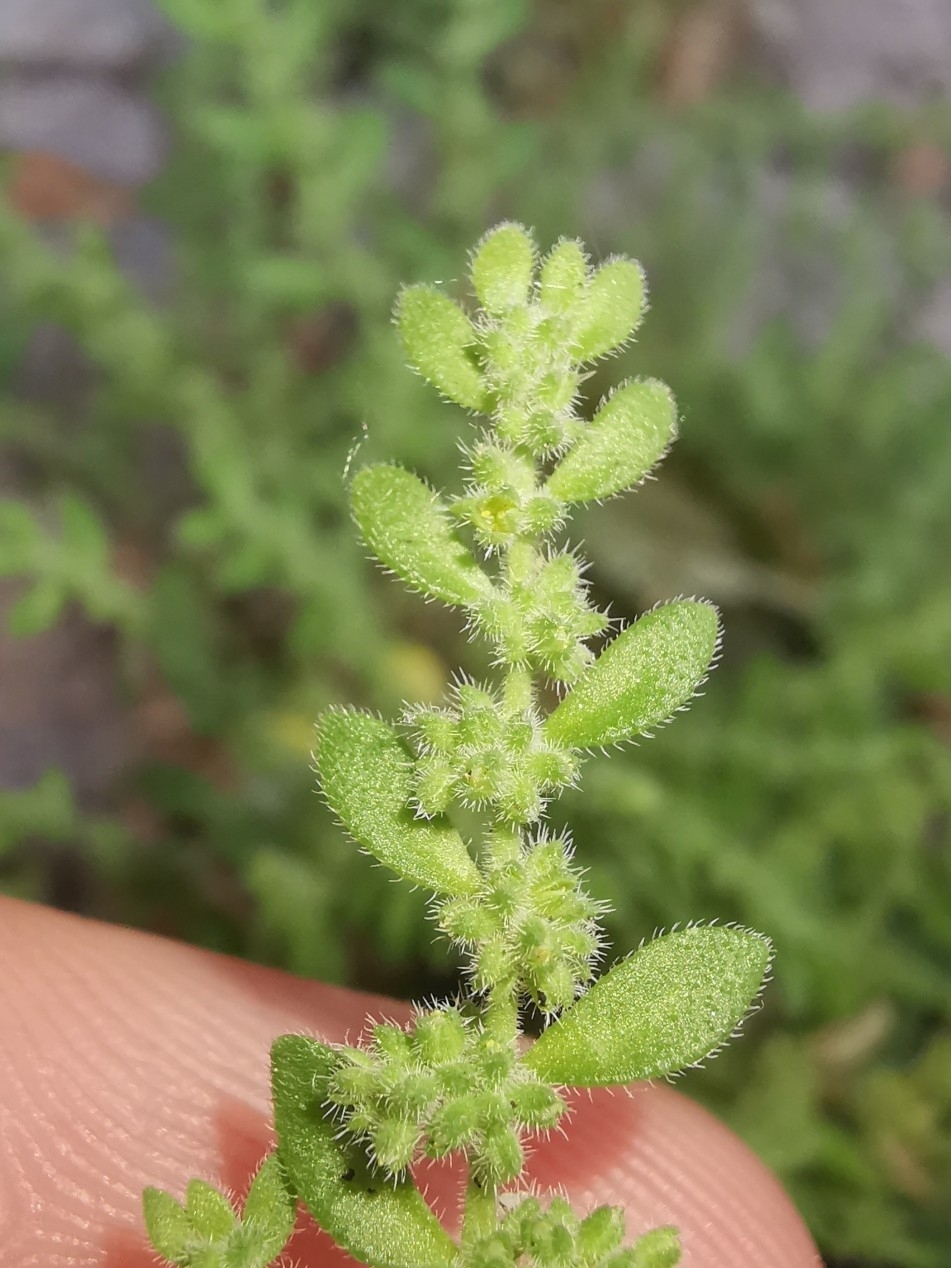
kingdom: Plantae
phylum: Tracheophyta
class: Magnoliopsida
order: Caryophyllales
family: Caryophyllaceae
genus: Herniaria
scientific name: Herniaria hirsuta
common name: Hairy rupturewort
